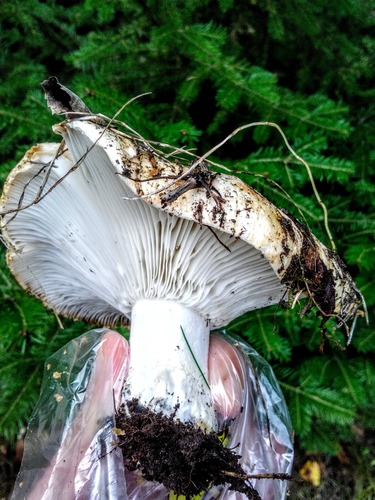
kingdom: Fungi
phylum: Basidiomycota
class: Agaricomycetes
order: Russulales
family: Russulaceae
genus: Russula
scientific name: Russula delica
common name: Milk white brittlegill
